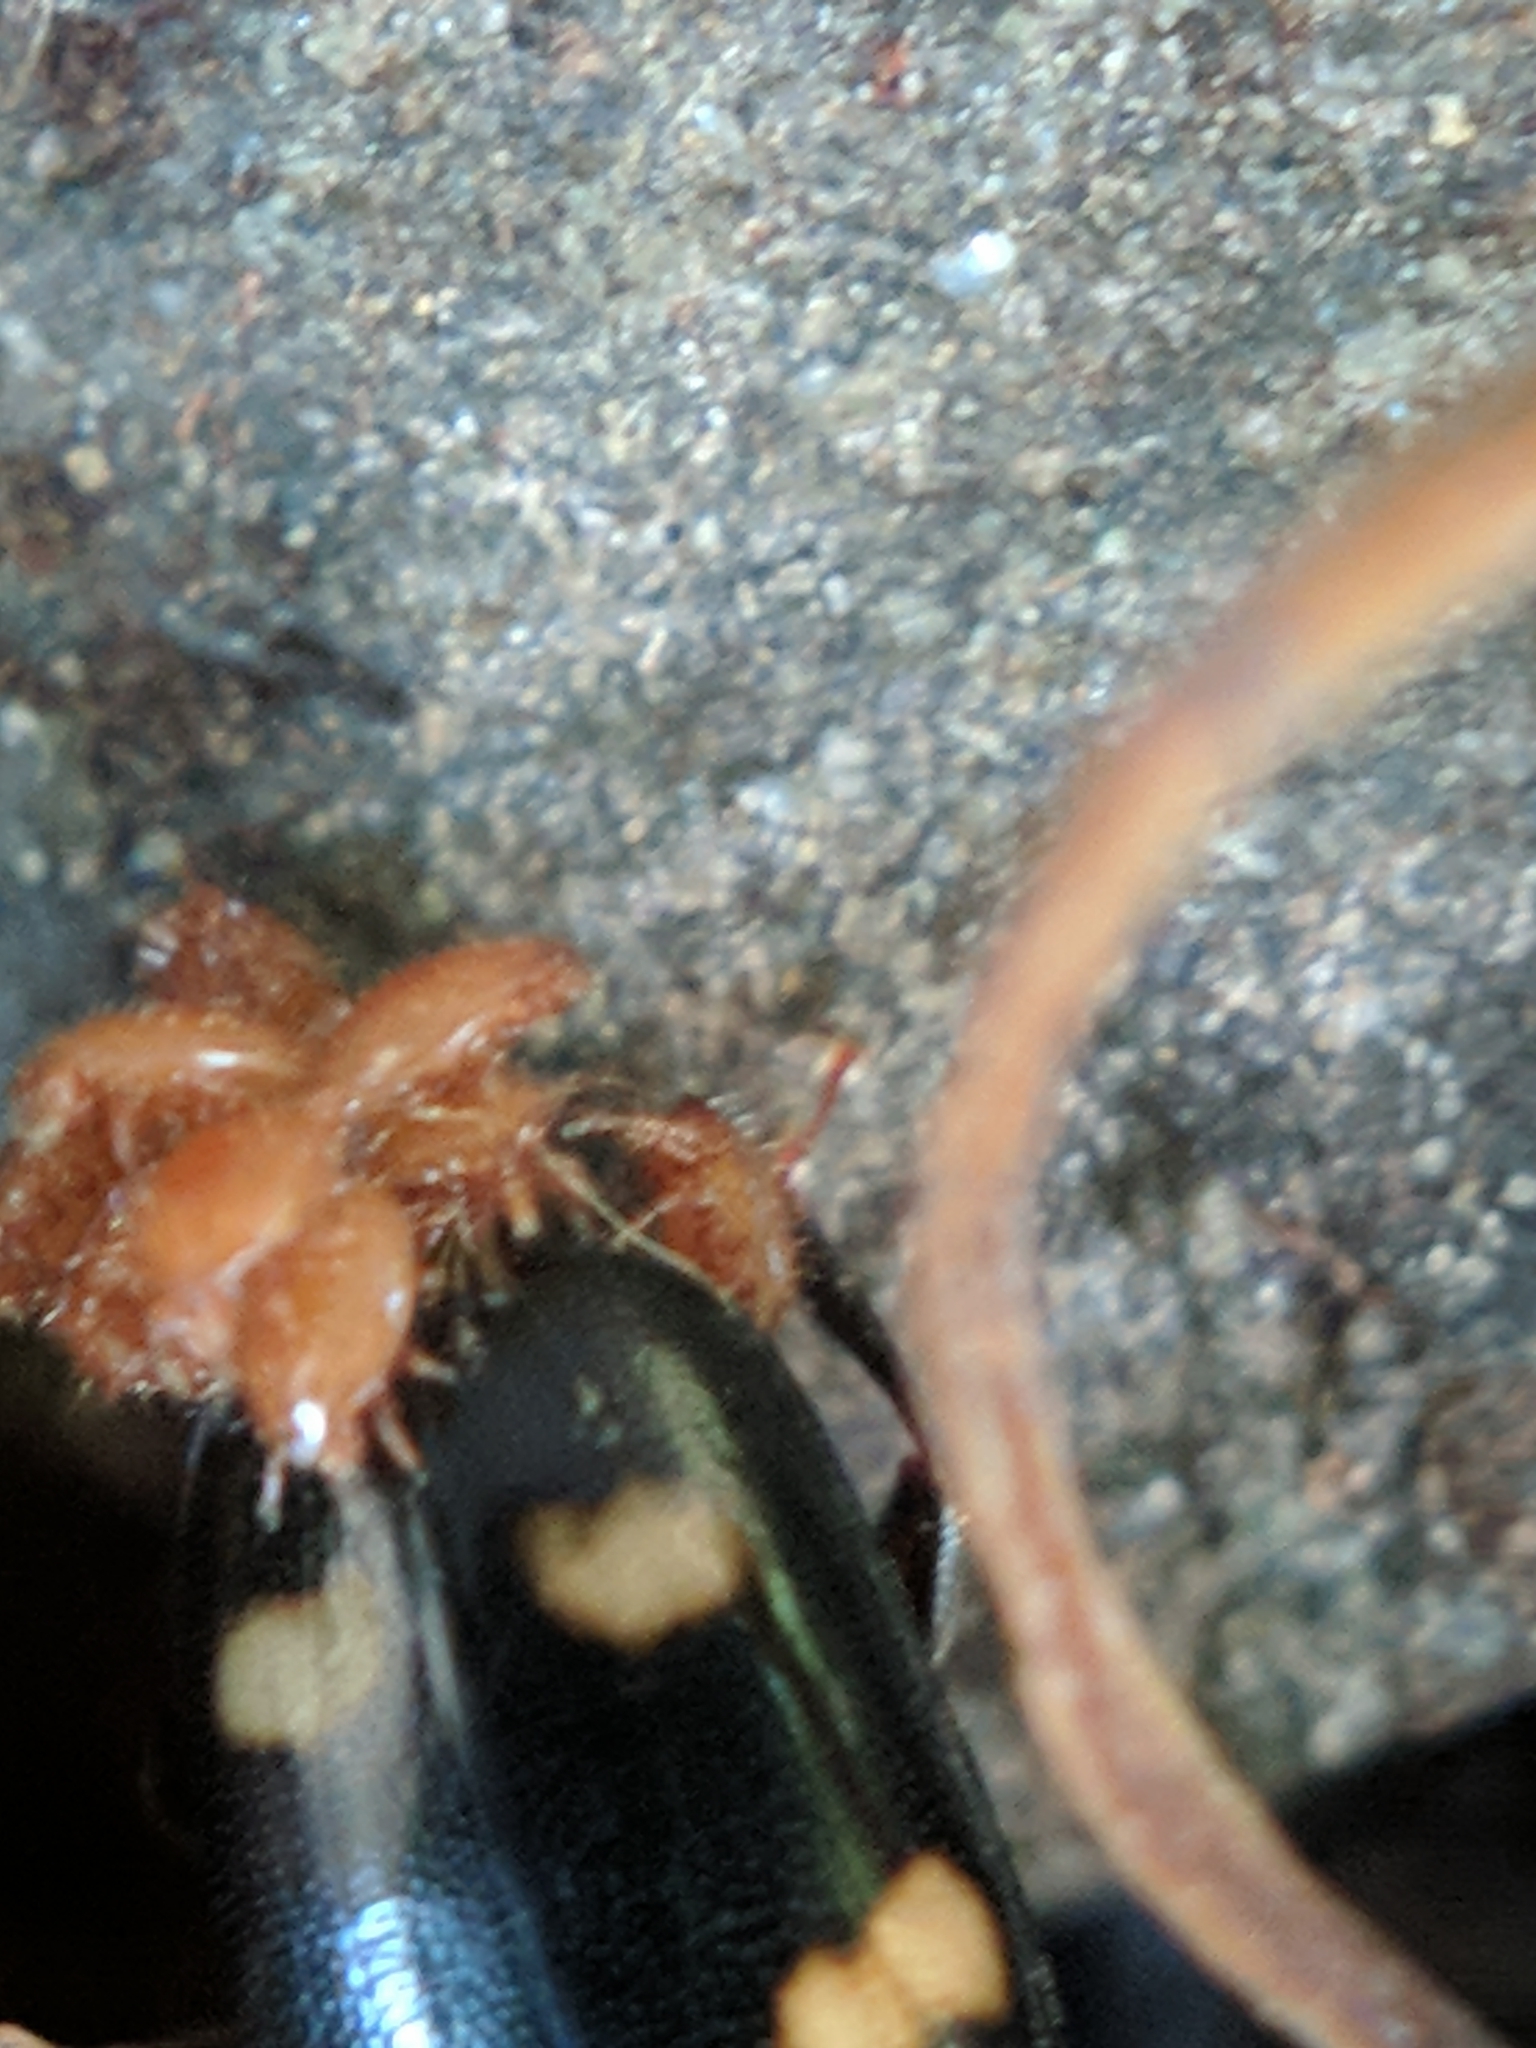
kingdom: Animalia
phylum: Arthropoda
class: Insecta
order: Coleoptera
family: Nitidulidae
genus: Glischrochilus
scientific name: Glischrochilus quadrisignatus
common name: Picnic beetle
